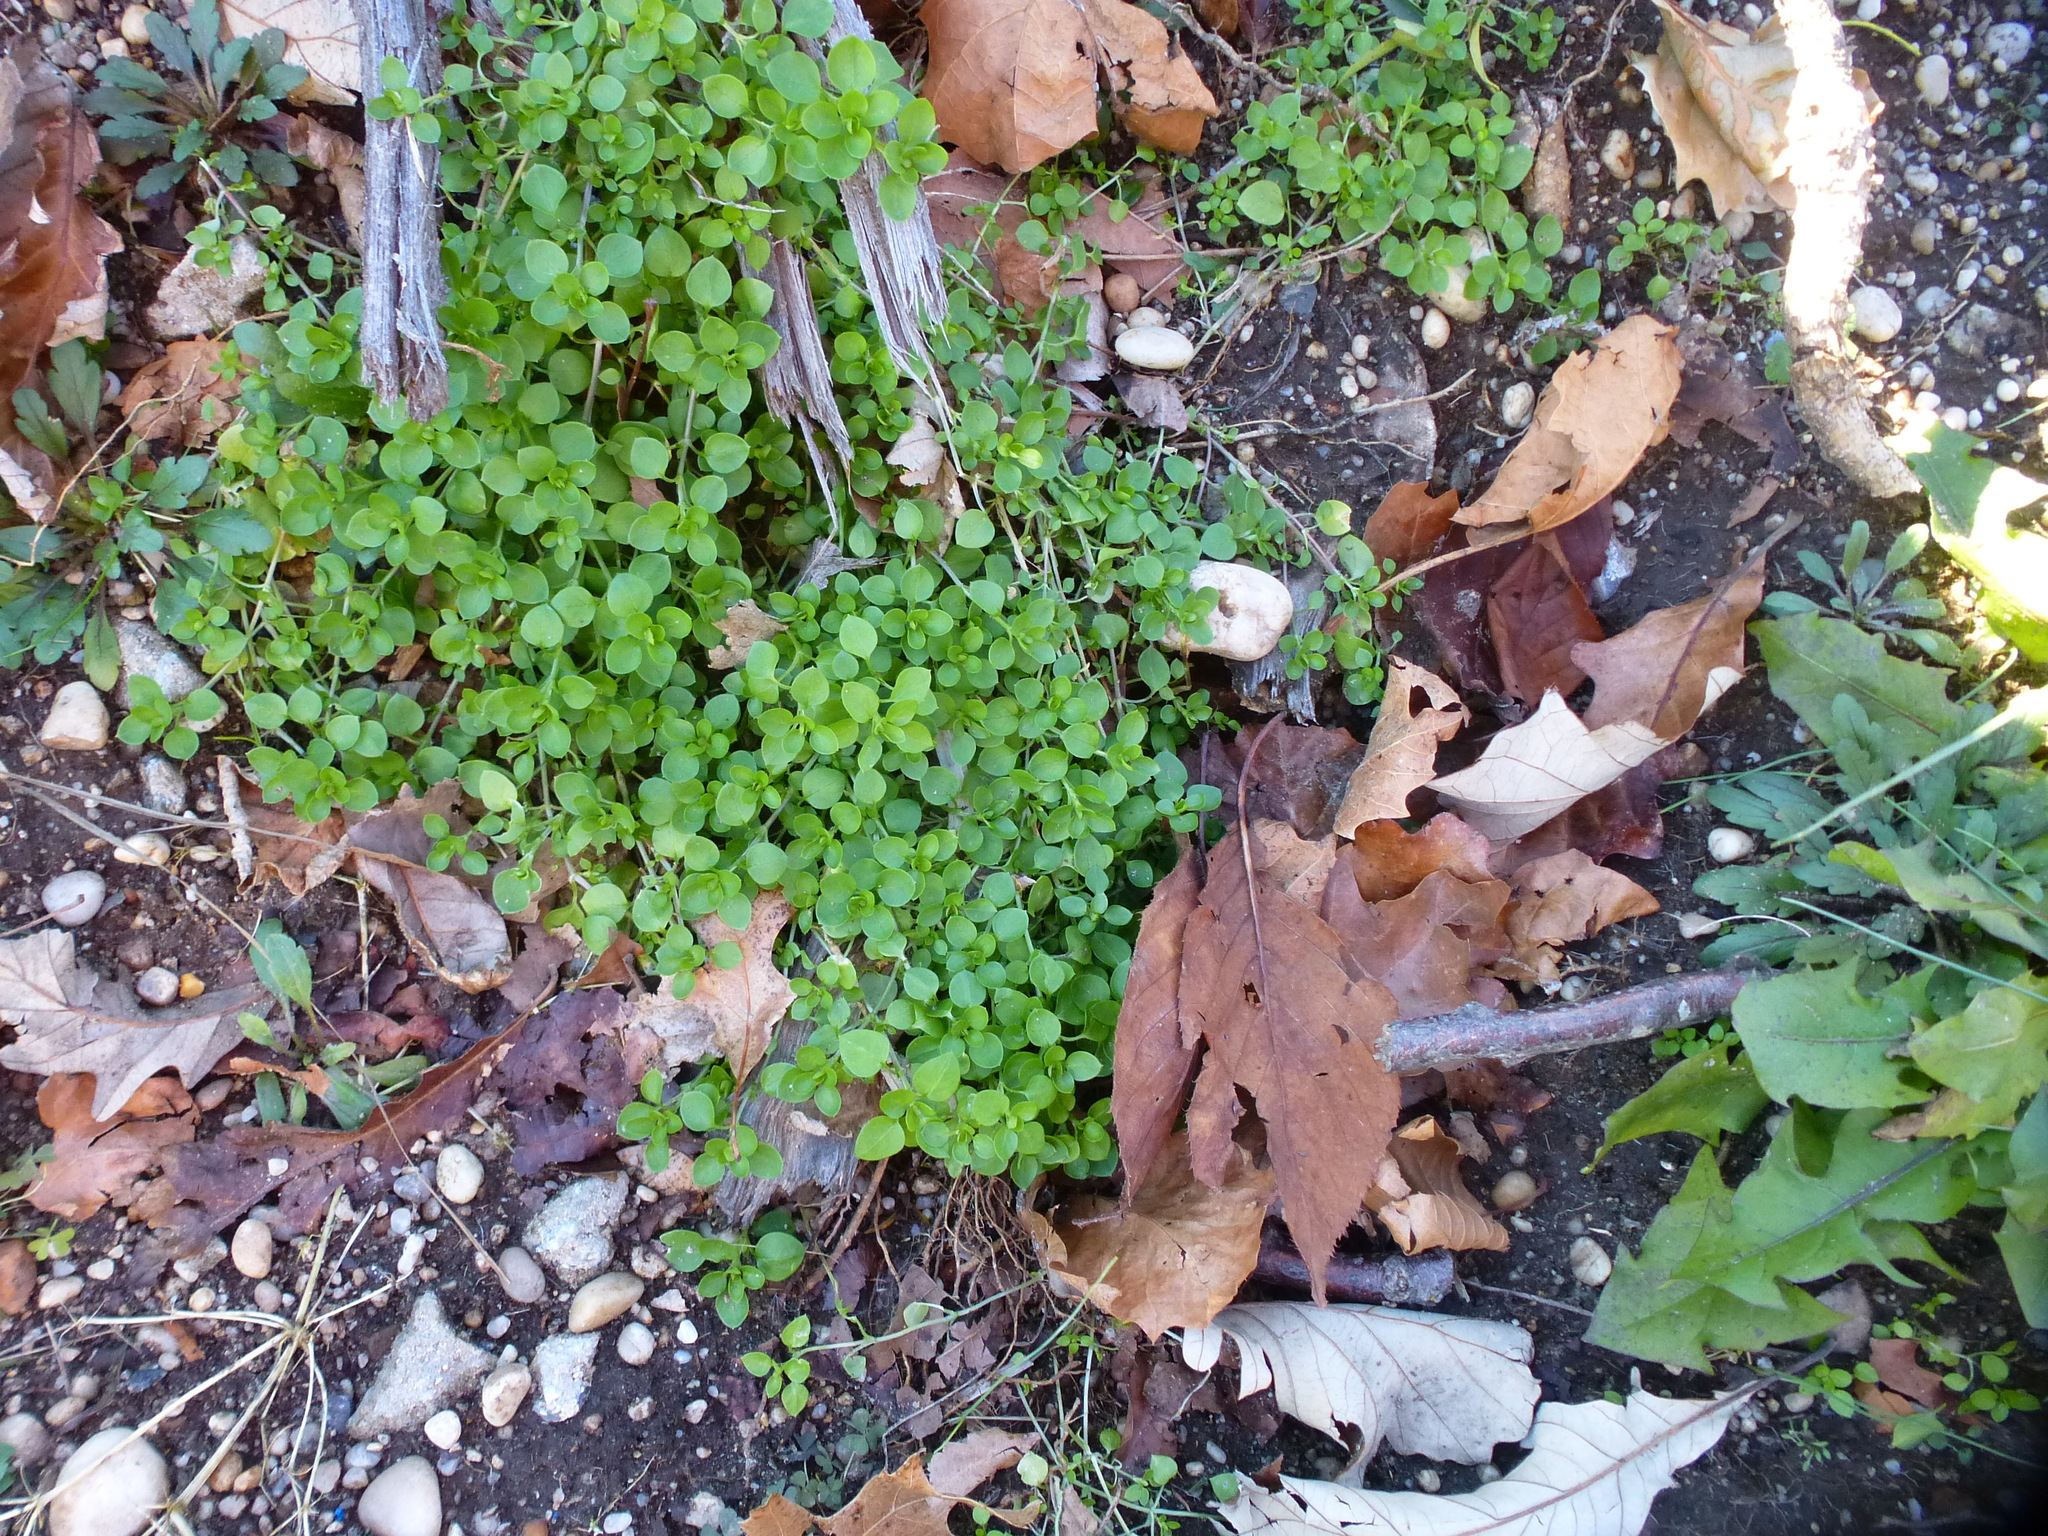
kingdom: Plantae
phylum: Tracheophyta
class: Magnoliopsida
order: Caryophyllales
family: Caryophyllaceae
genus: Stellaria
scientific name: Stellaria media
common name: Common chickweed
